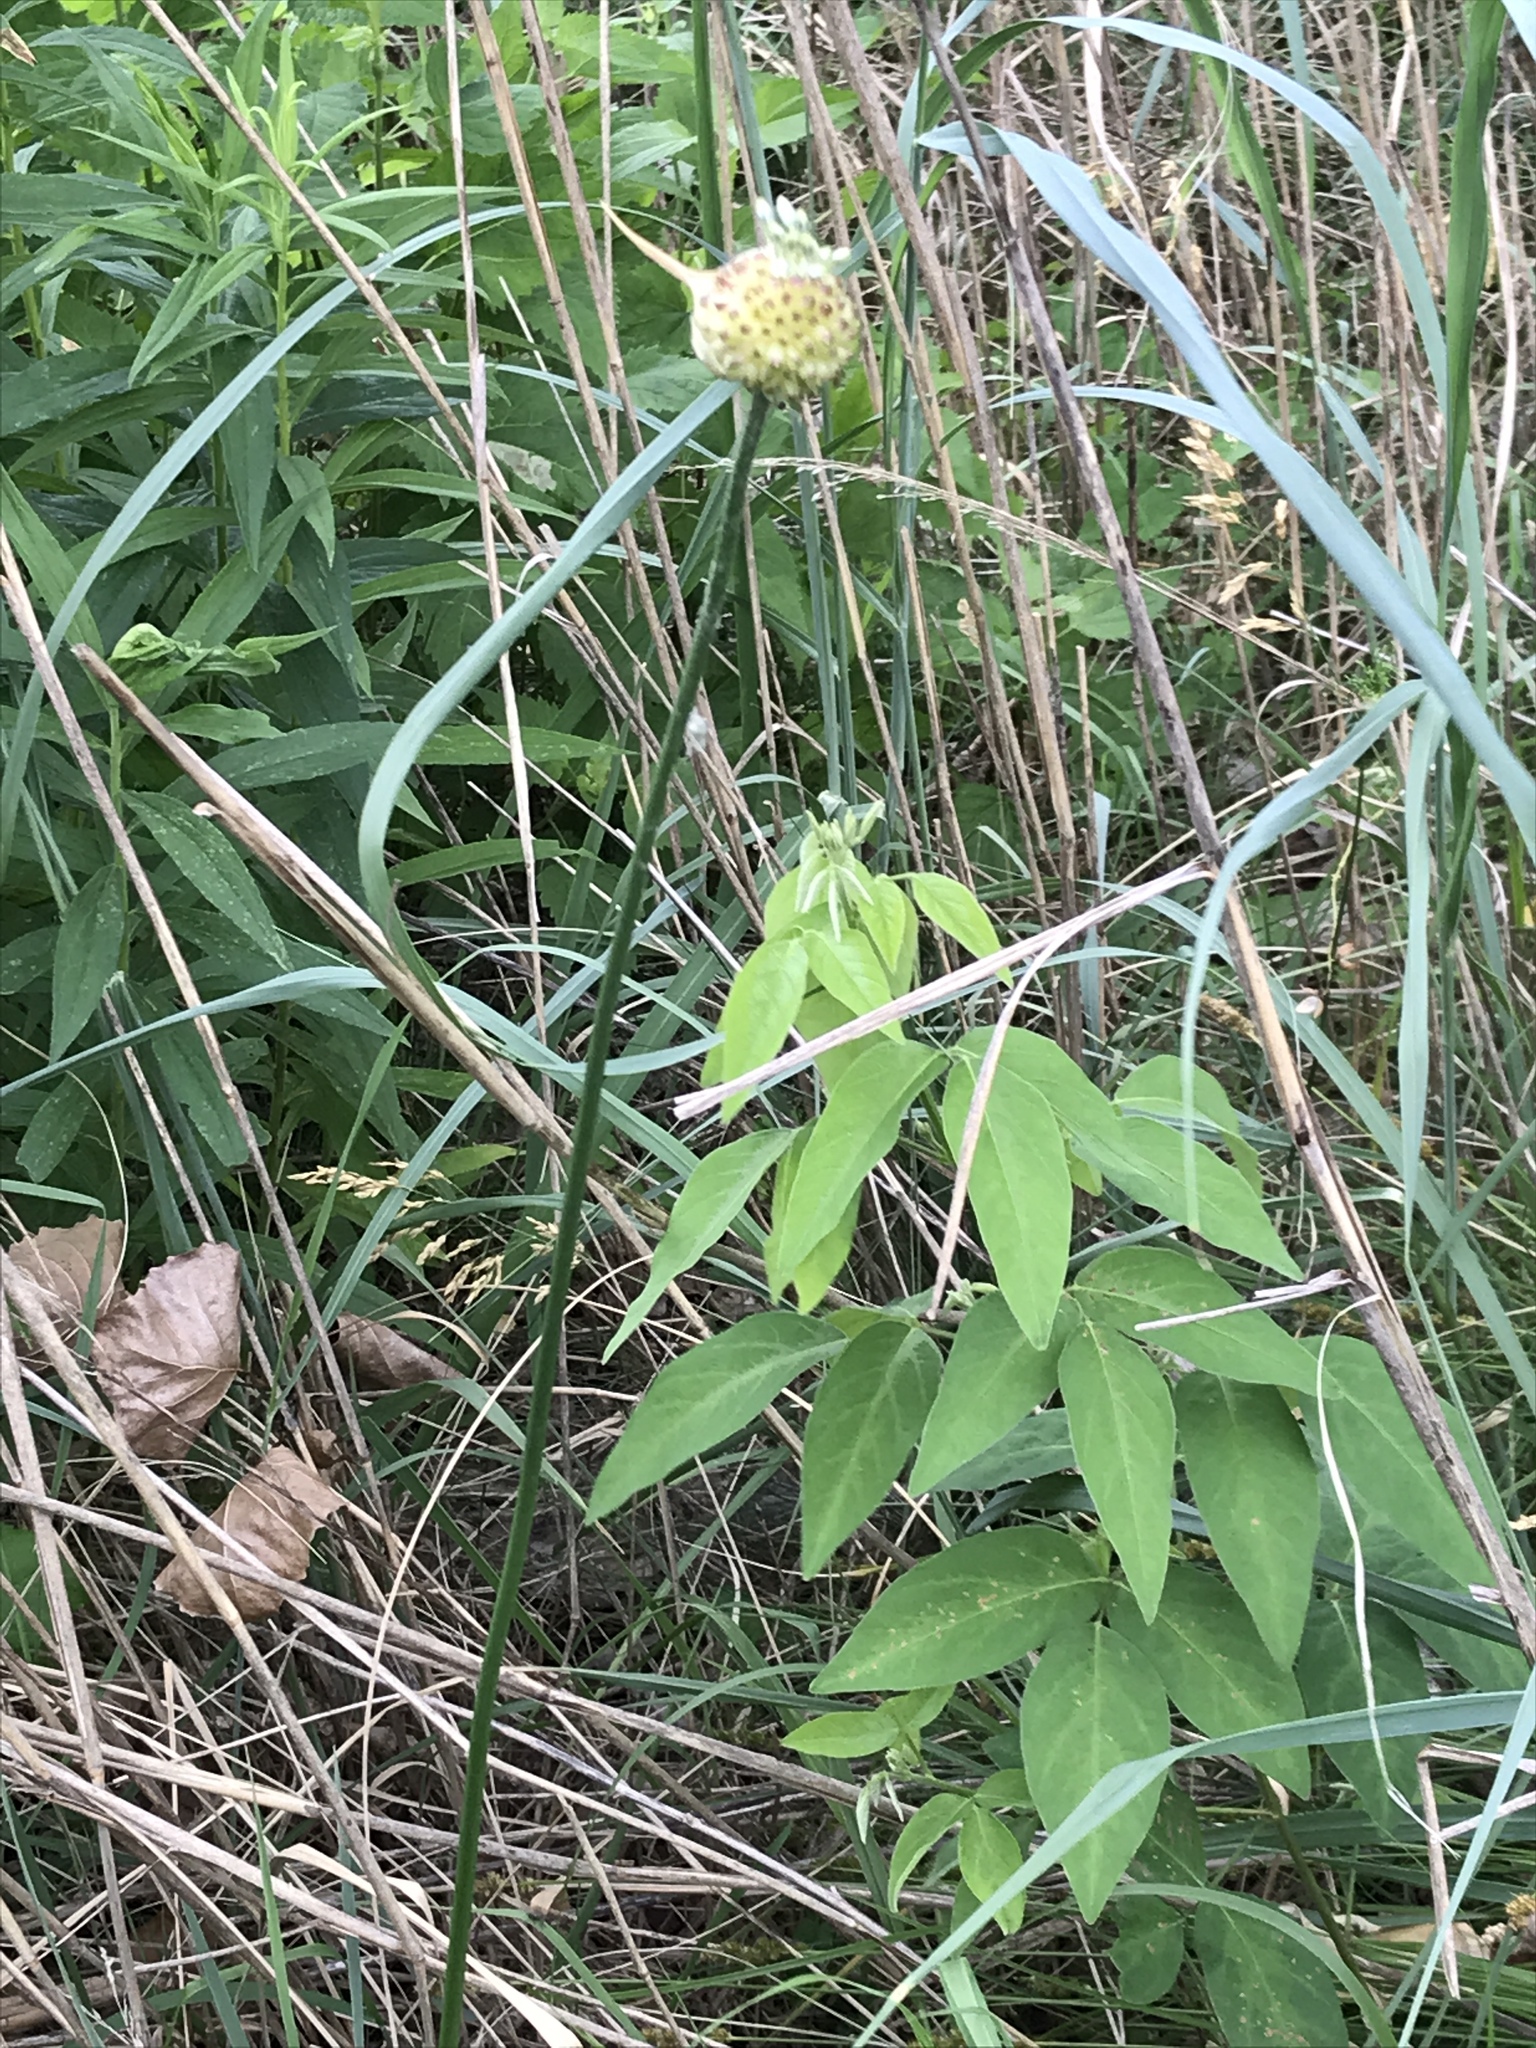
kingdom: Plantae
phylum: Tracheophyta
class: Liliopsida
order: Asparagales
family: Amaryllidaceae
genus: Allium
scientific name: Allium vineale
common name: Crow garlic
